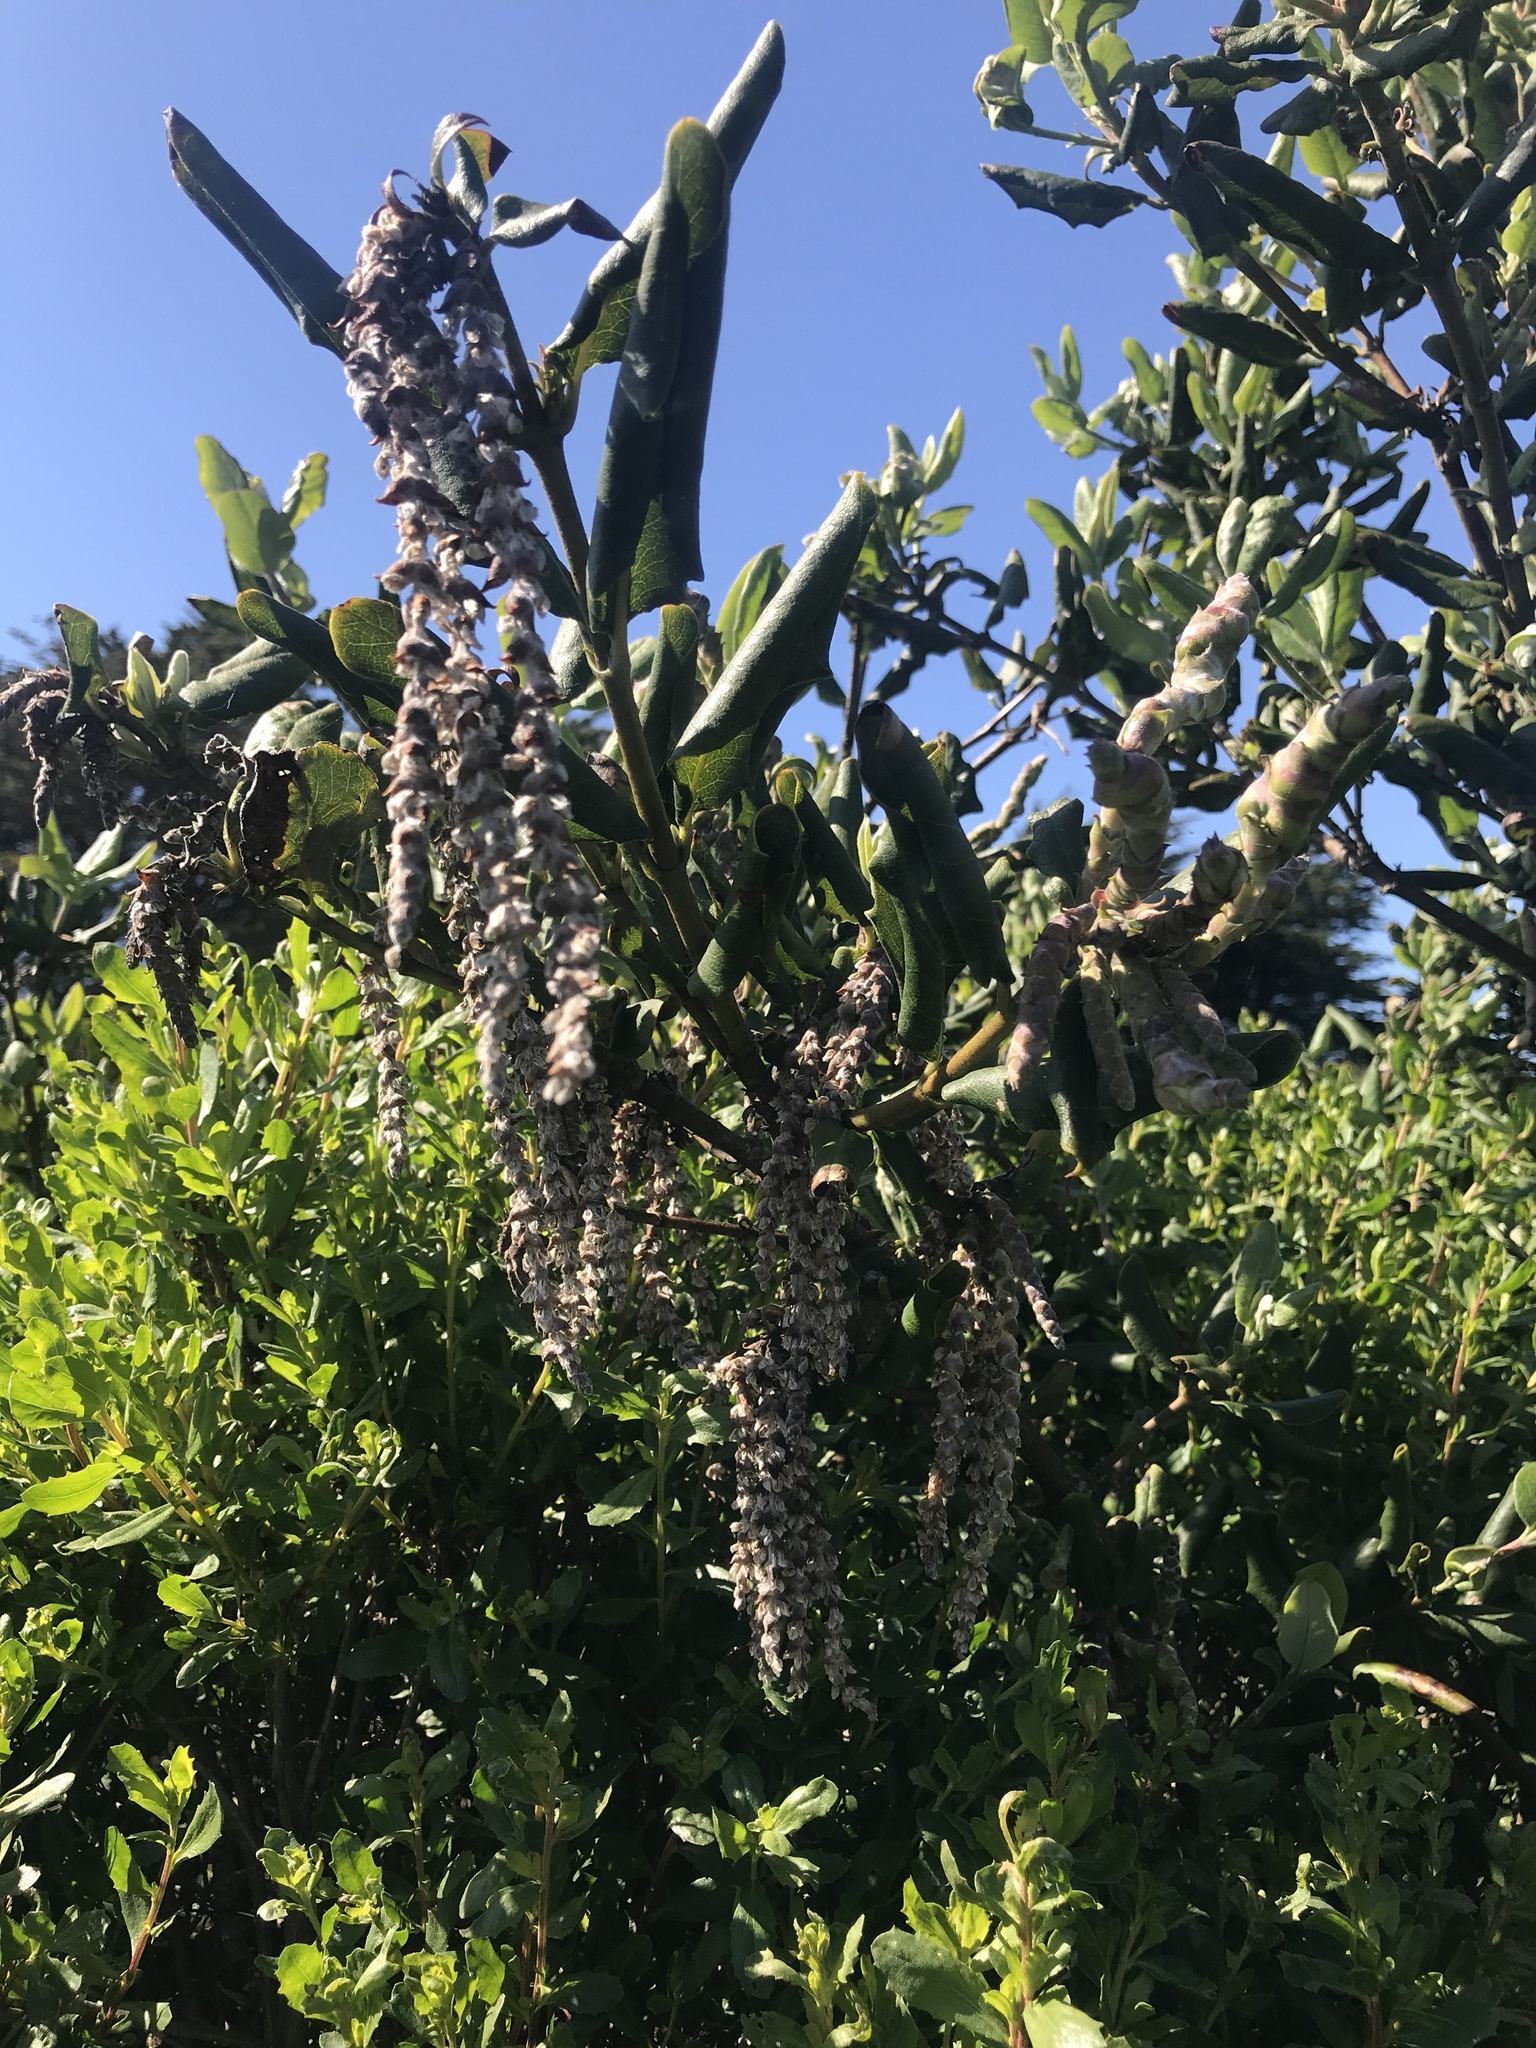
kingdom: Plantae
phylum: Tracheophyta
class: Magnoliopsida
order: Garryales
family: Garryaceae
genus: Garrya
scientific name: Garrya elliptica
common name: Silk-tassel
